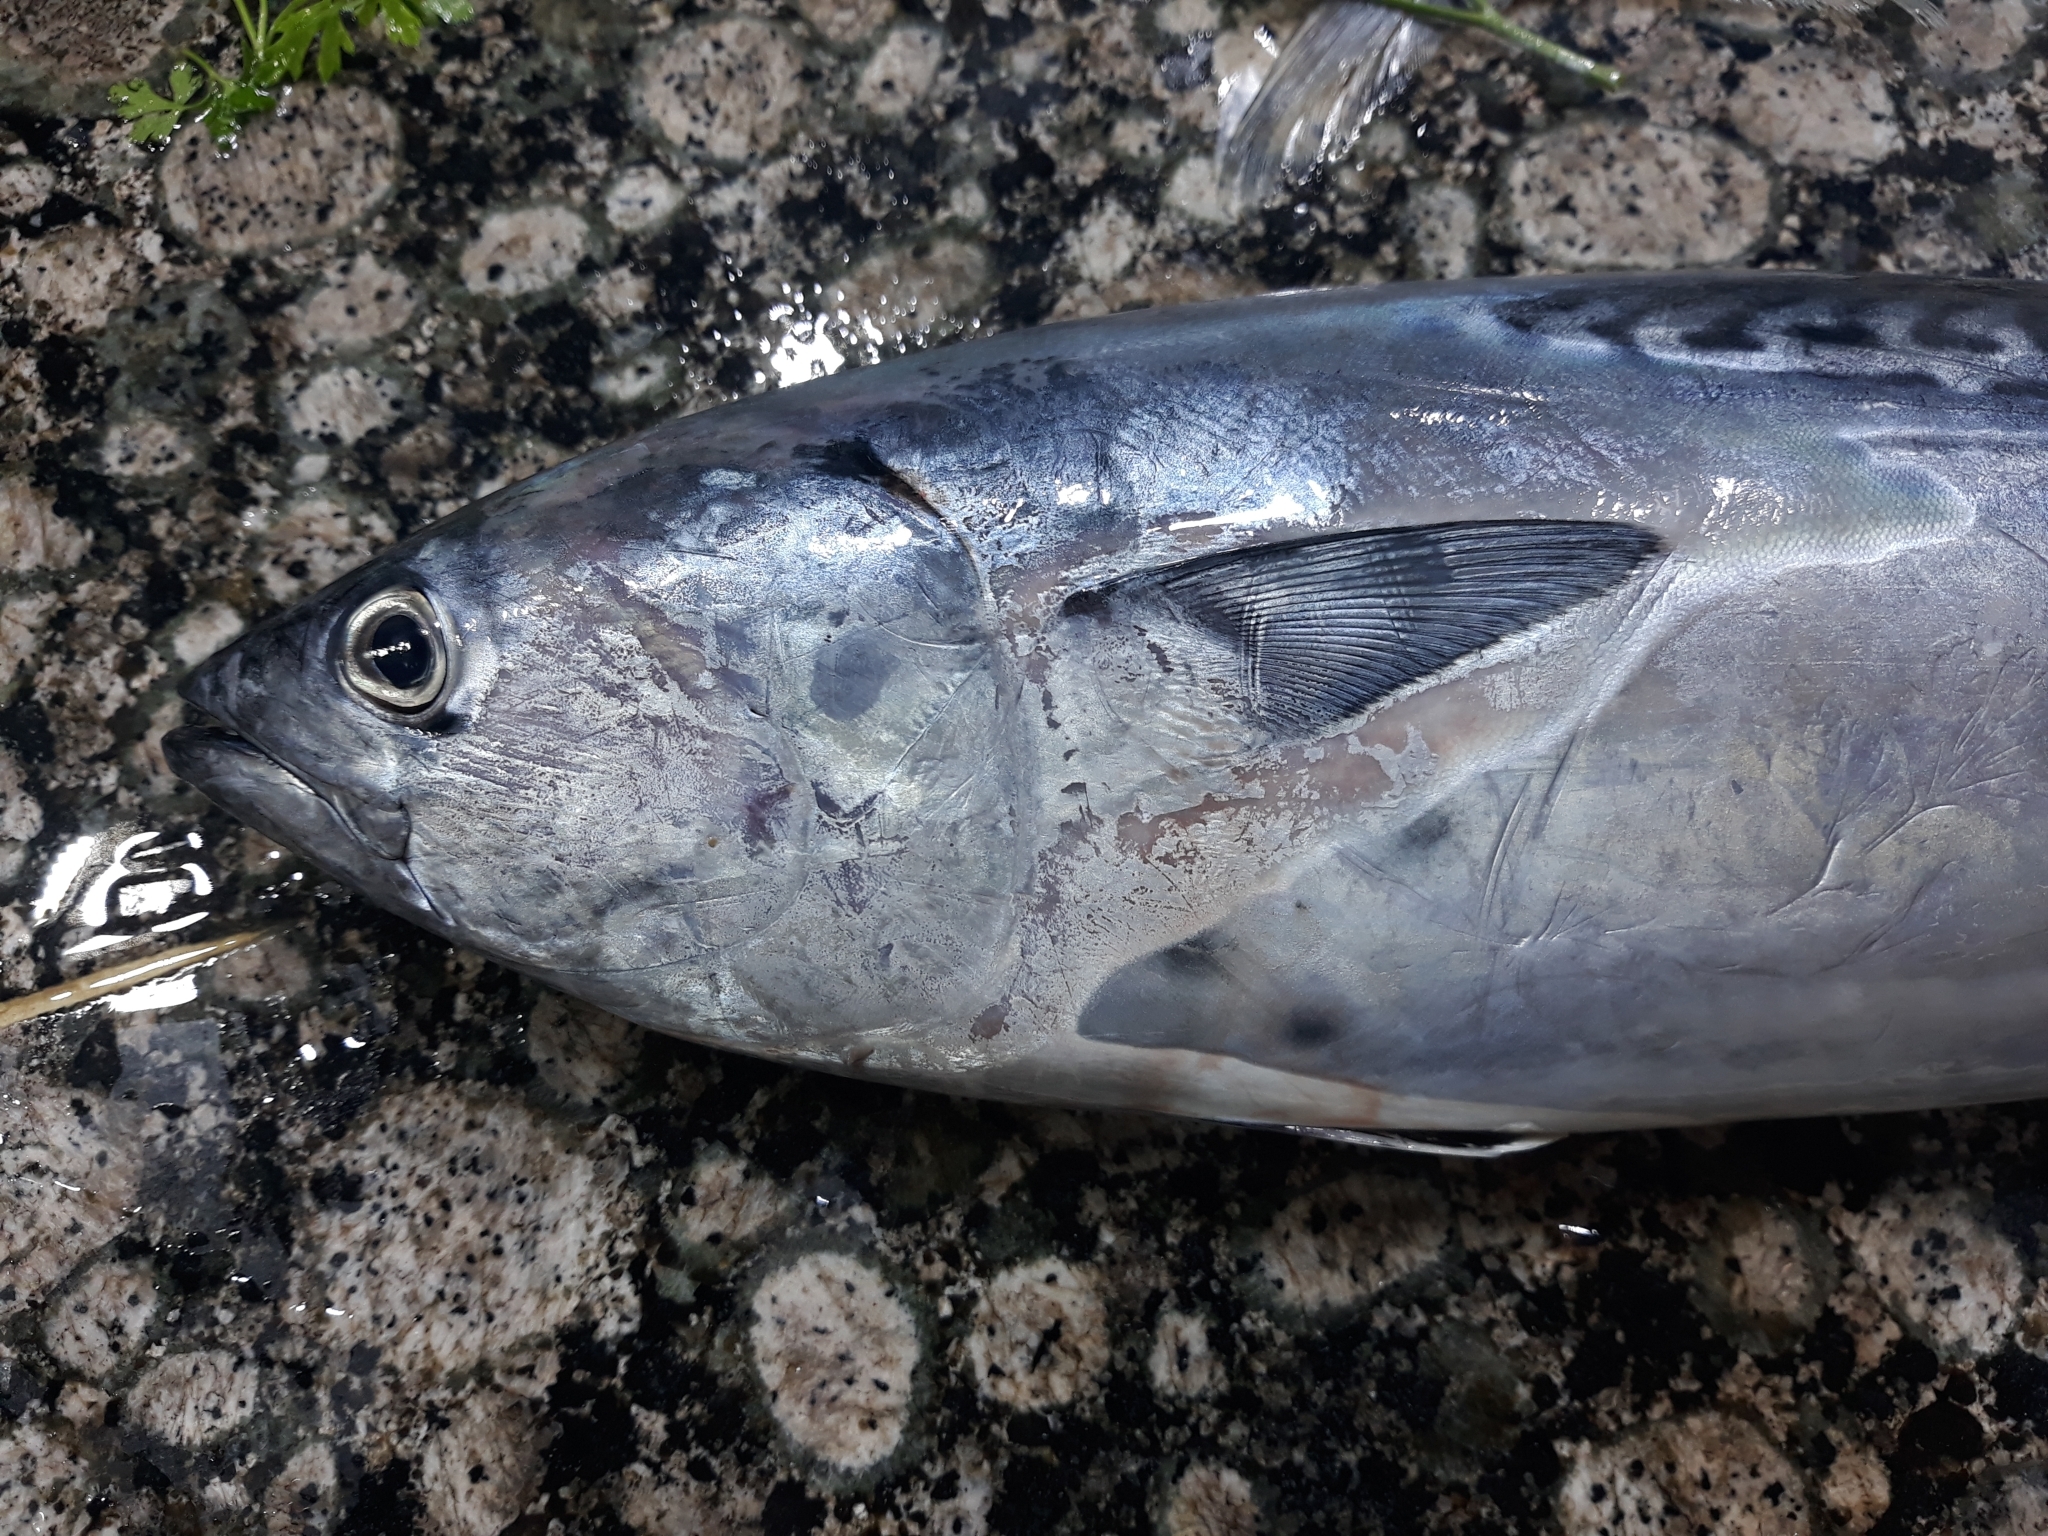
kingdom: Animalia
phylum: Chordata
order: Perciformes
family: Scombridae
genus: Euthynnus
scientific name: Euthynnus alletteratus
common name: Little tunny
